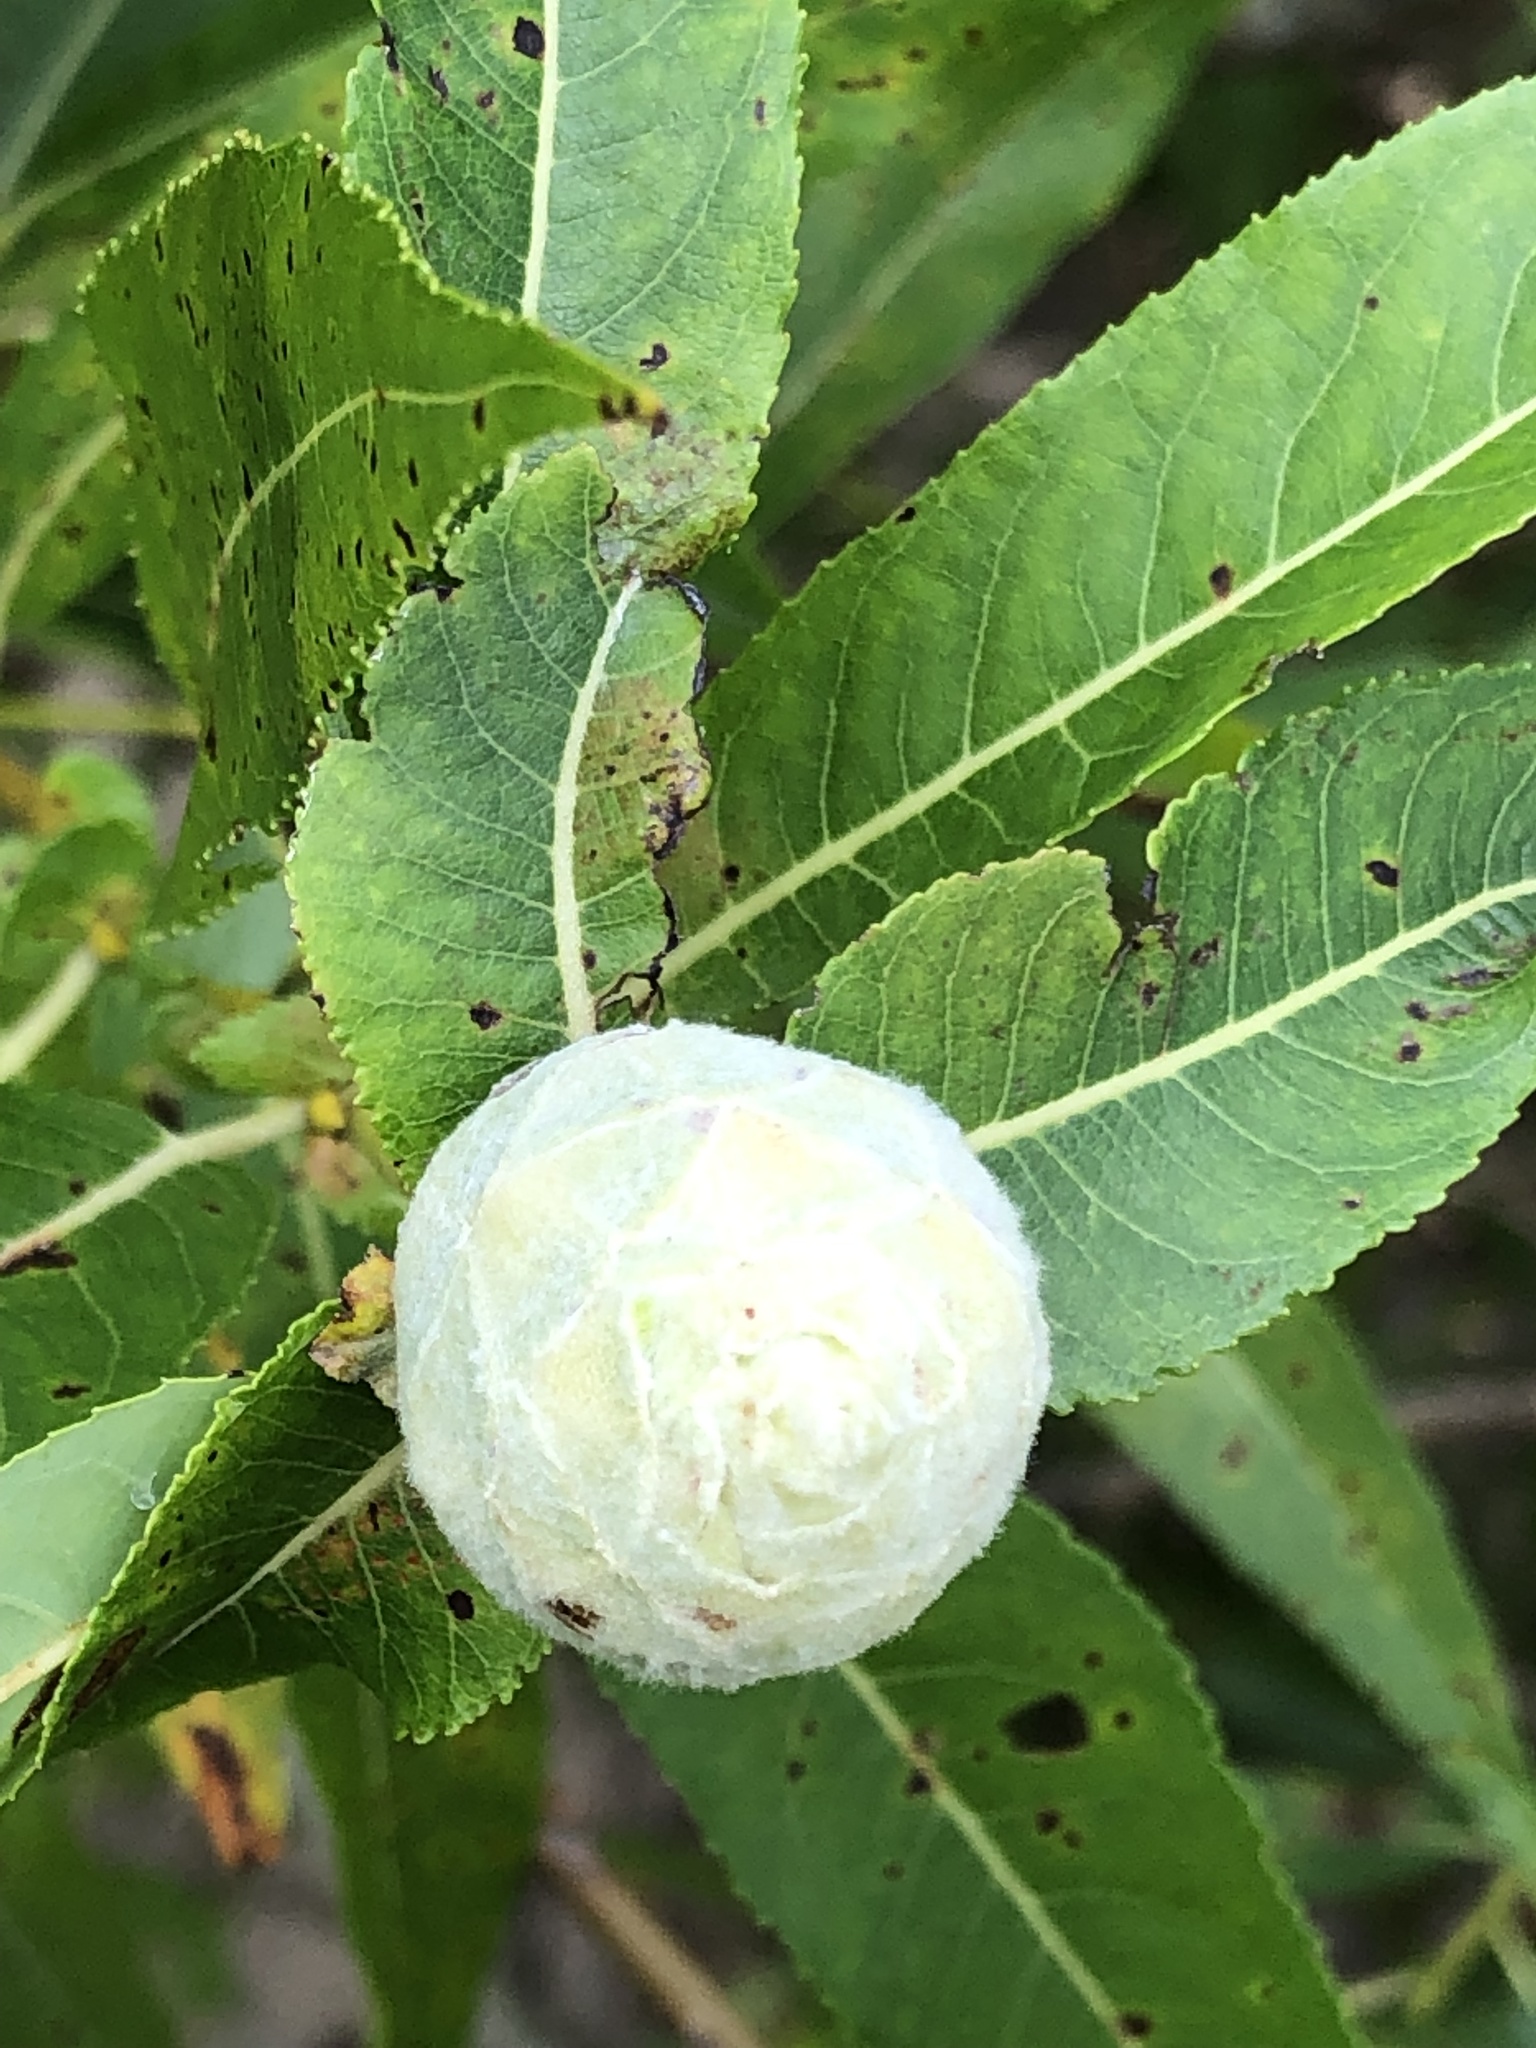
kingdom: Animalia
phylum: Arthropoda
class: Insecta
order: Diptera
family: Cecidomyiidae
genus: Rabdophaga
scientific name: Rabdophaga strobiloides
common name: Willow pinecone gall midge
